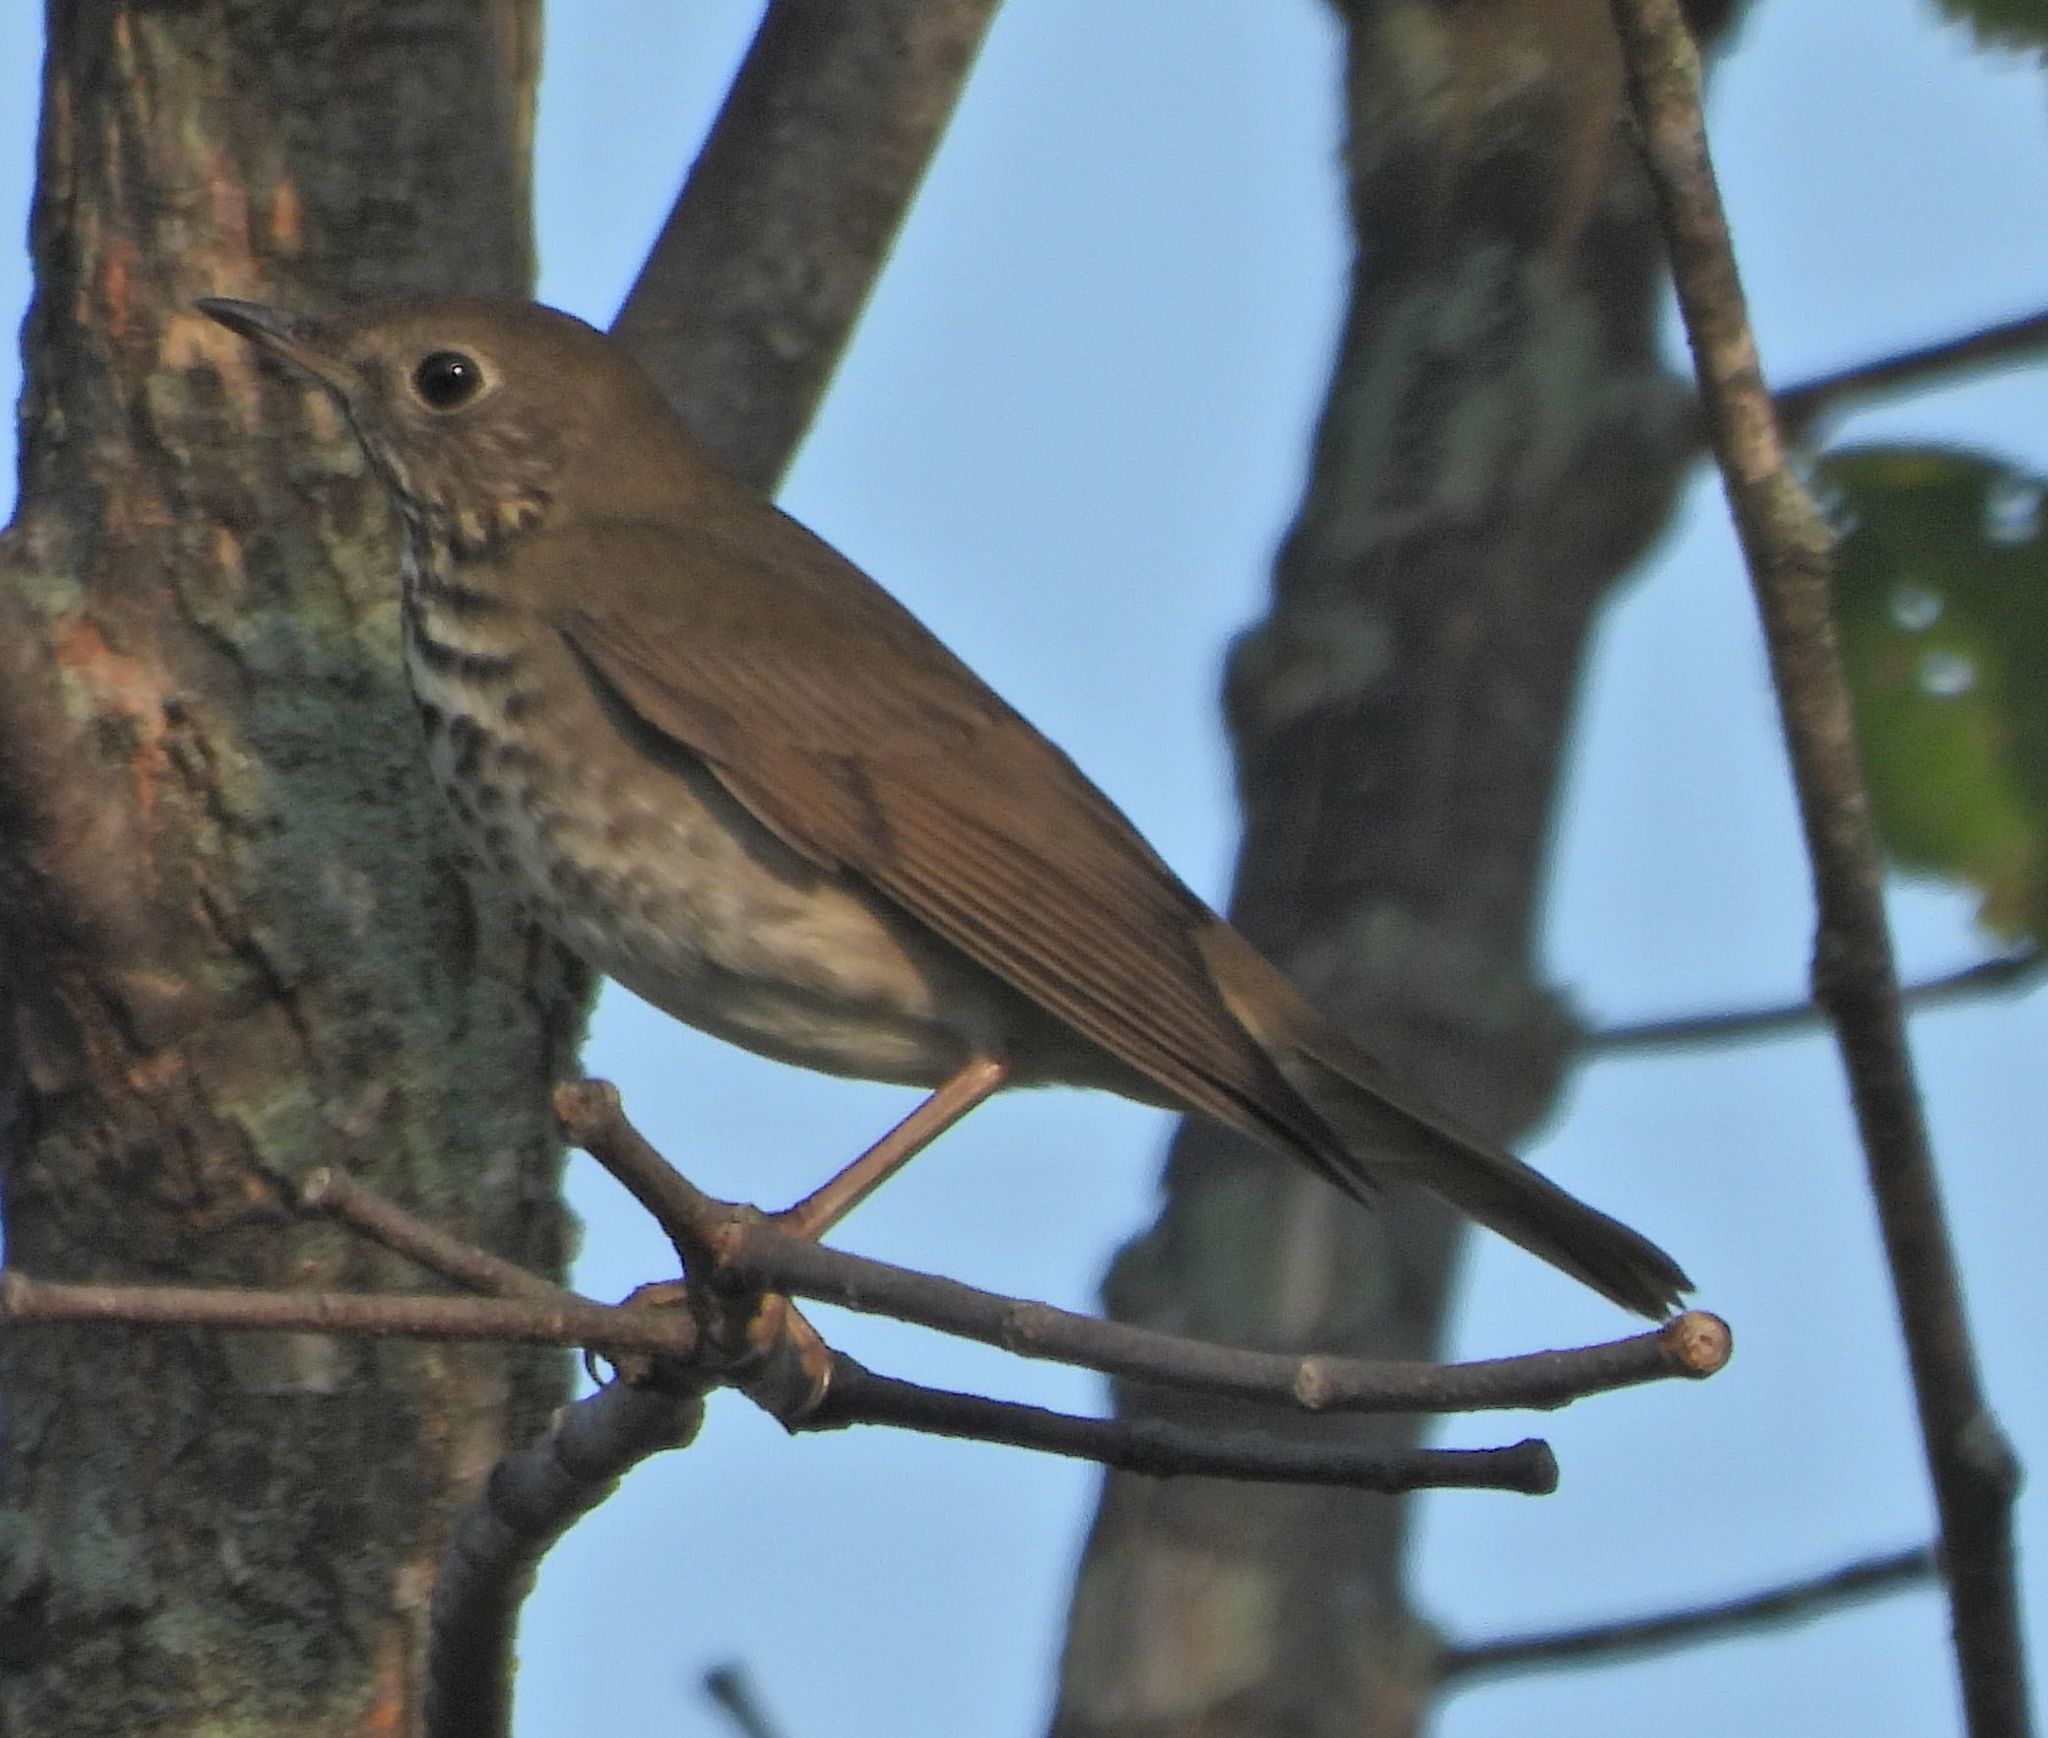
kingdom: Animalia
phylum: Chordata
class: Aves
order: Passeriformes
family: Turdidae
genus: Catharus
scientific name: Catharus guttatus
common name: Hermit thrush
